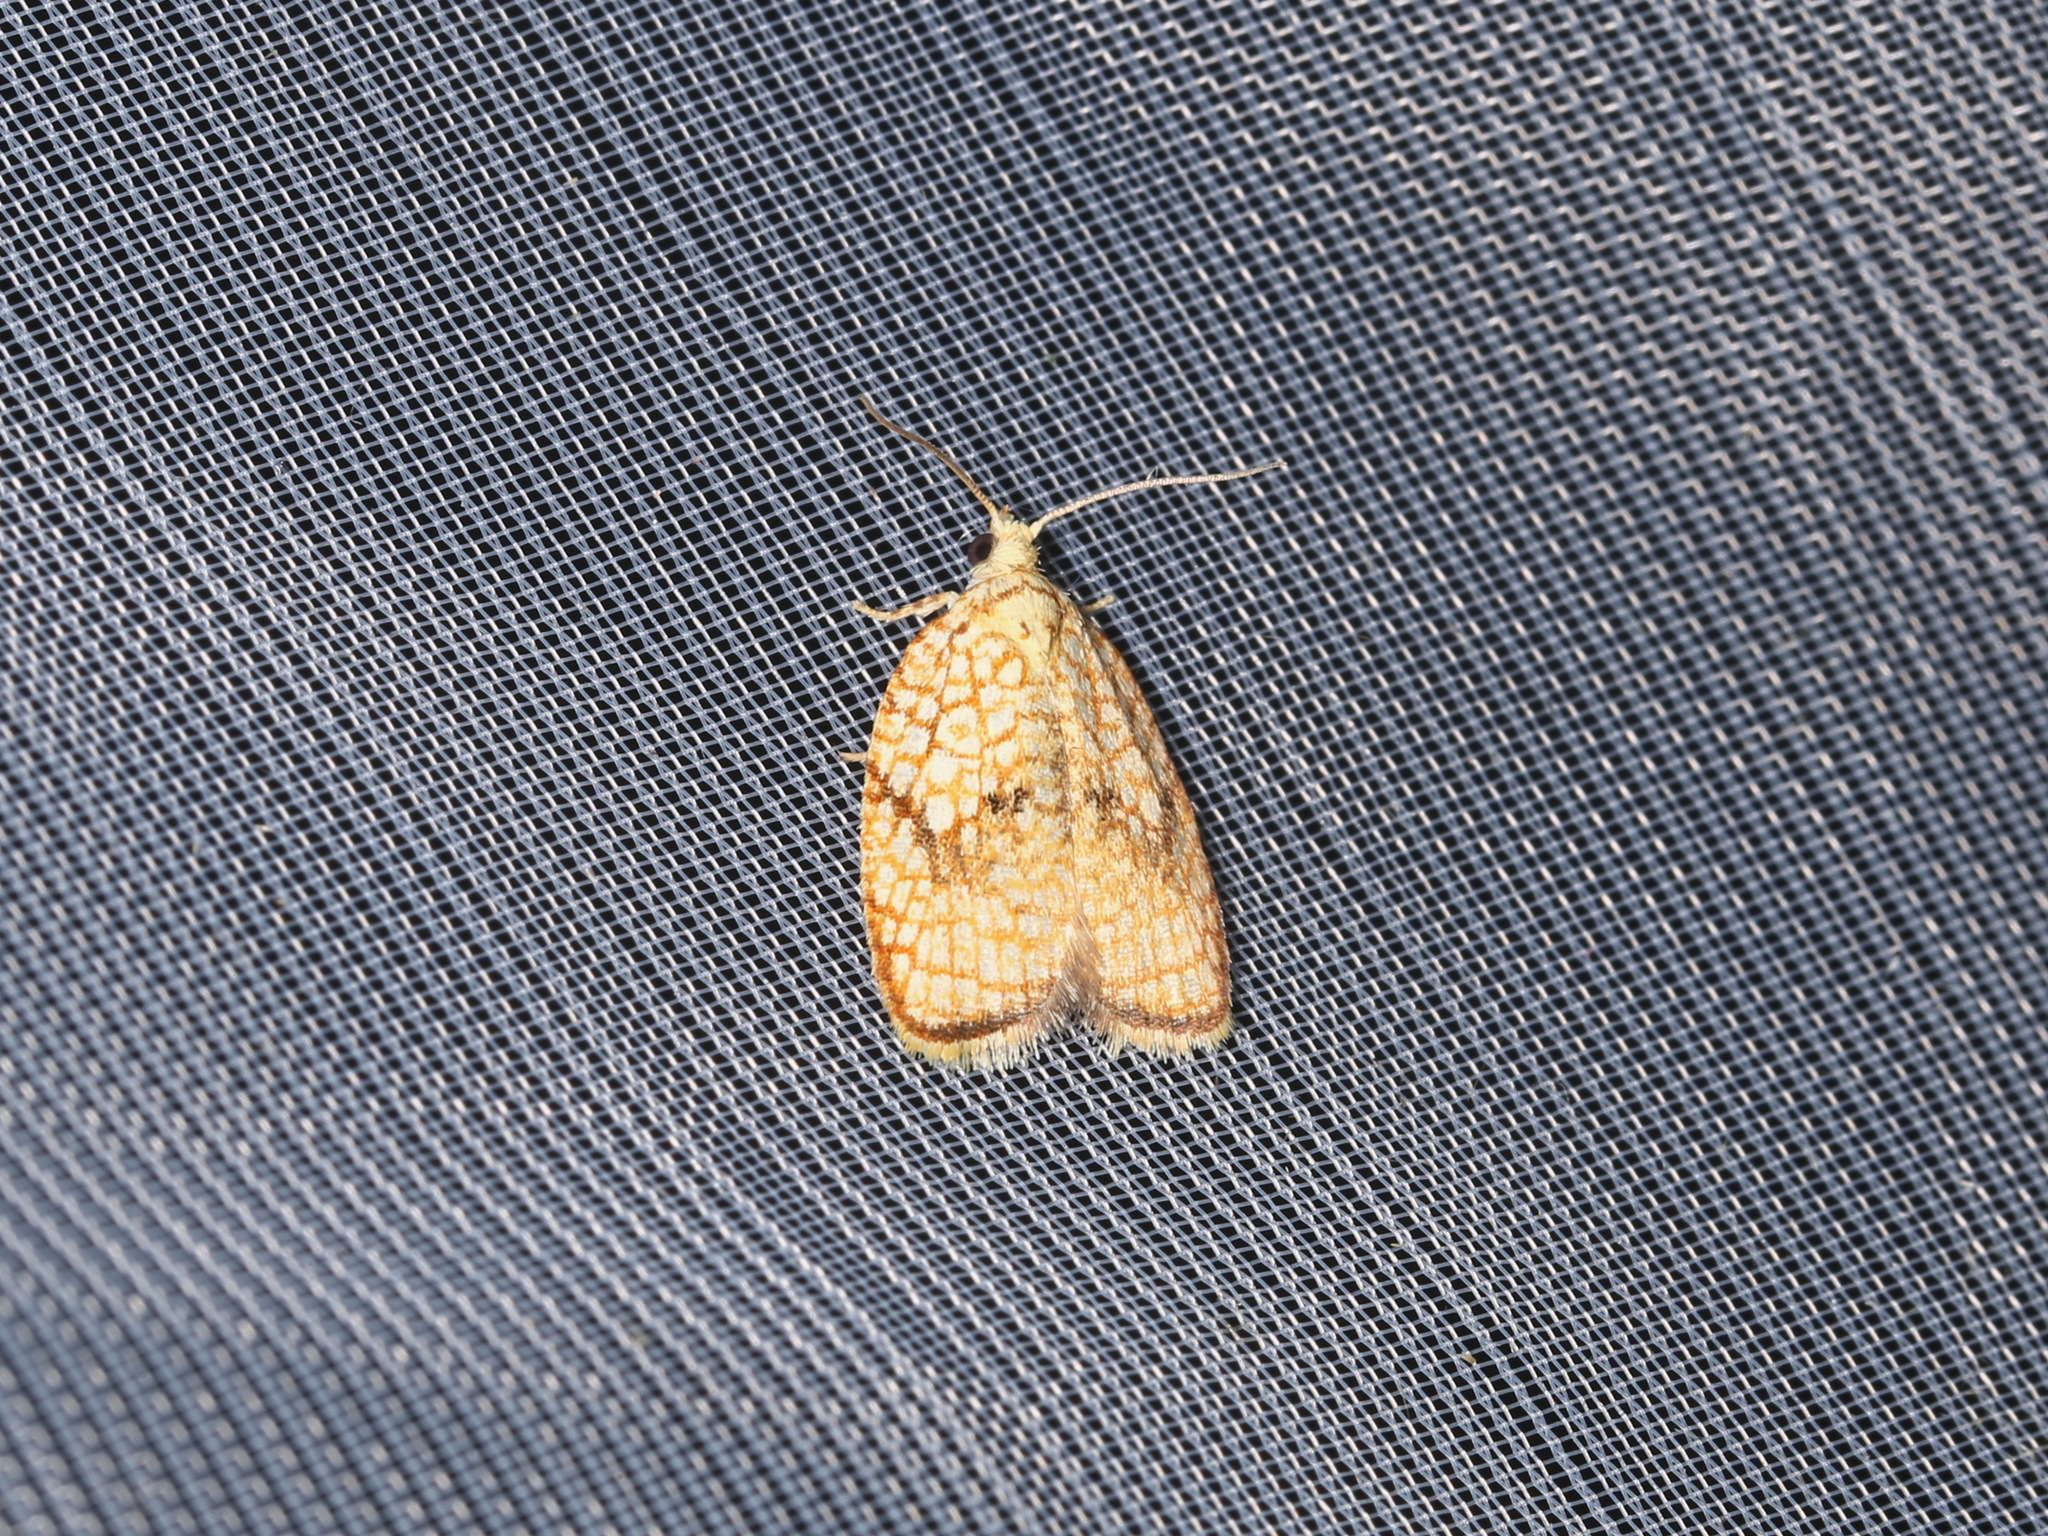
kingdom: Animalia
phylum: Arthropoda
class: Insecta
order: Lepidoptera
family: Tortricidae
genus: Acleris
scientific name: Acleris forsskaleana
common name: Maple button
